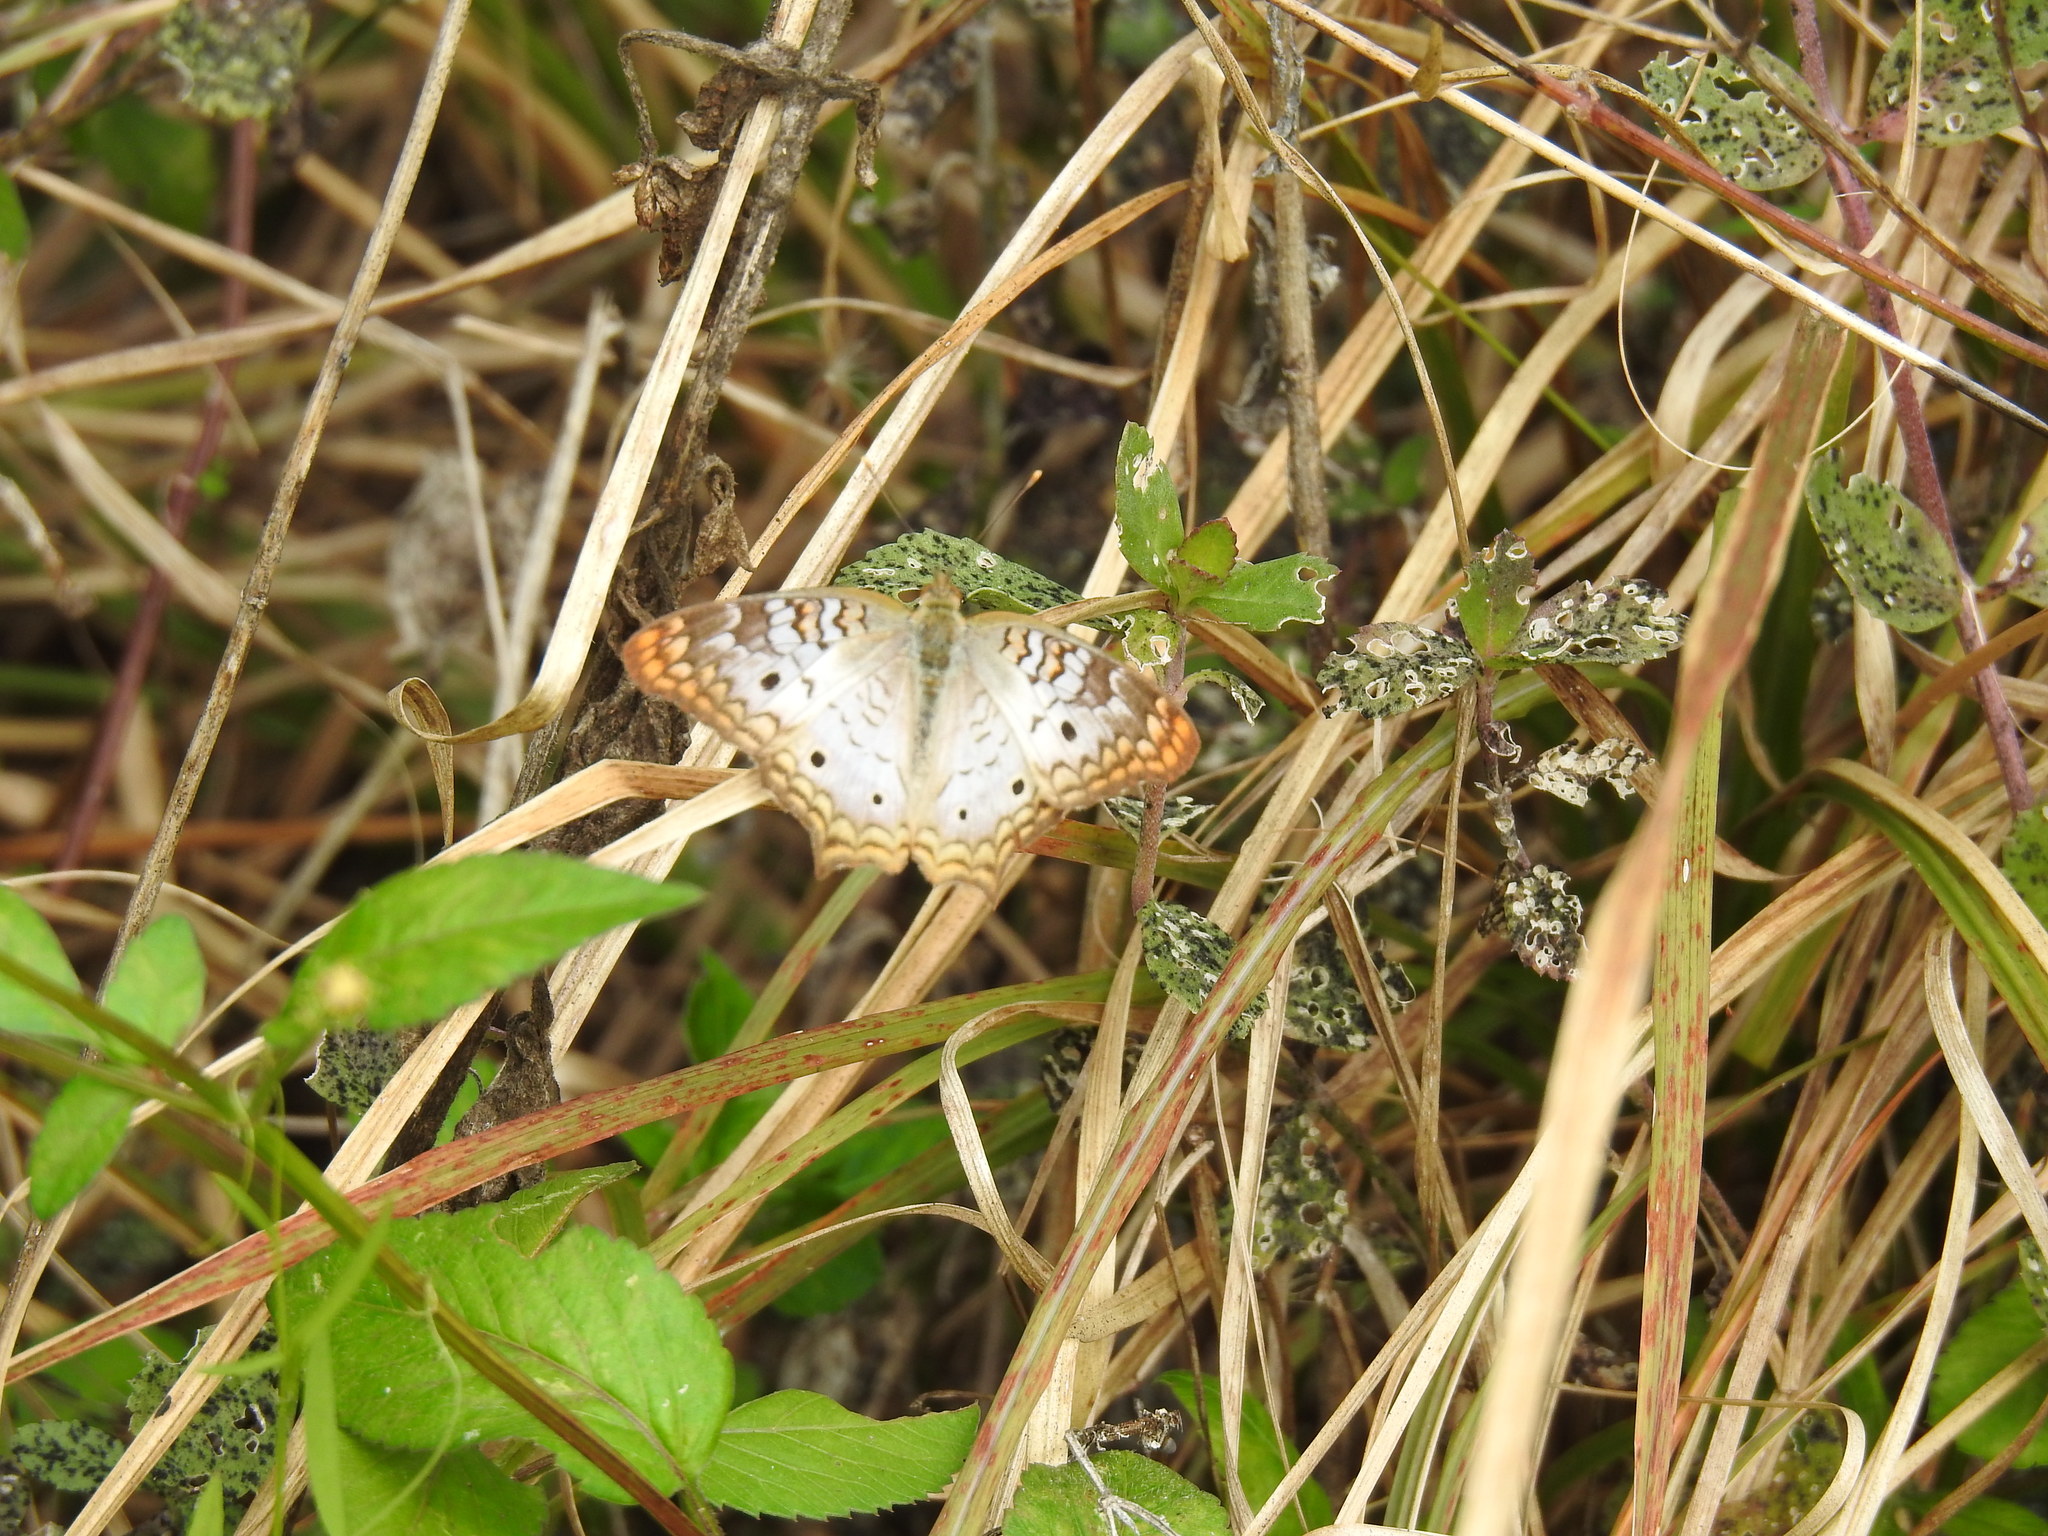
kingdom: Animalia
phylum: Arthropoda
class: Insecta
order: Lepidoptera
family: Nymphalidae
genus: Anartia
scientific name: Anartia jatrophae
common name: White peacock
